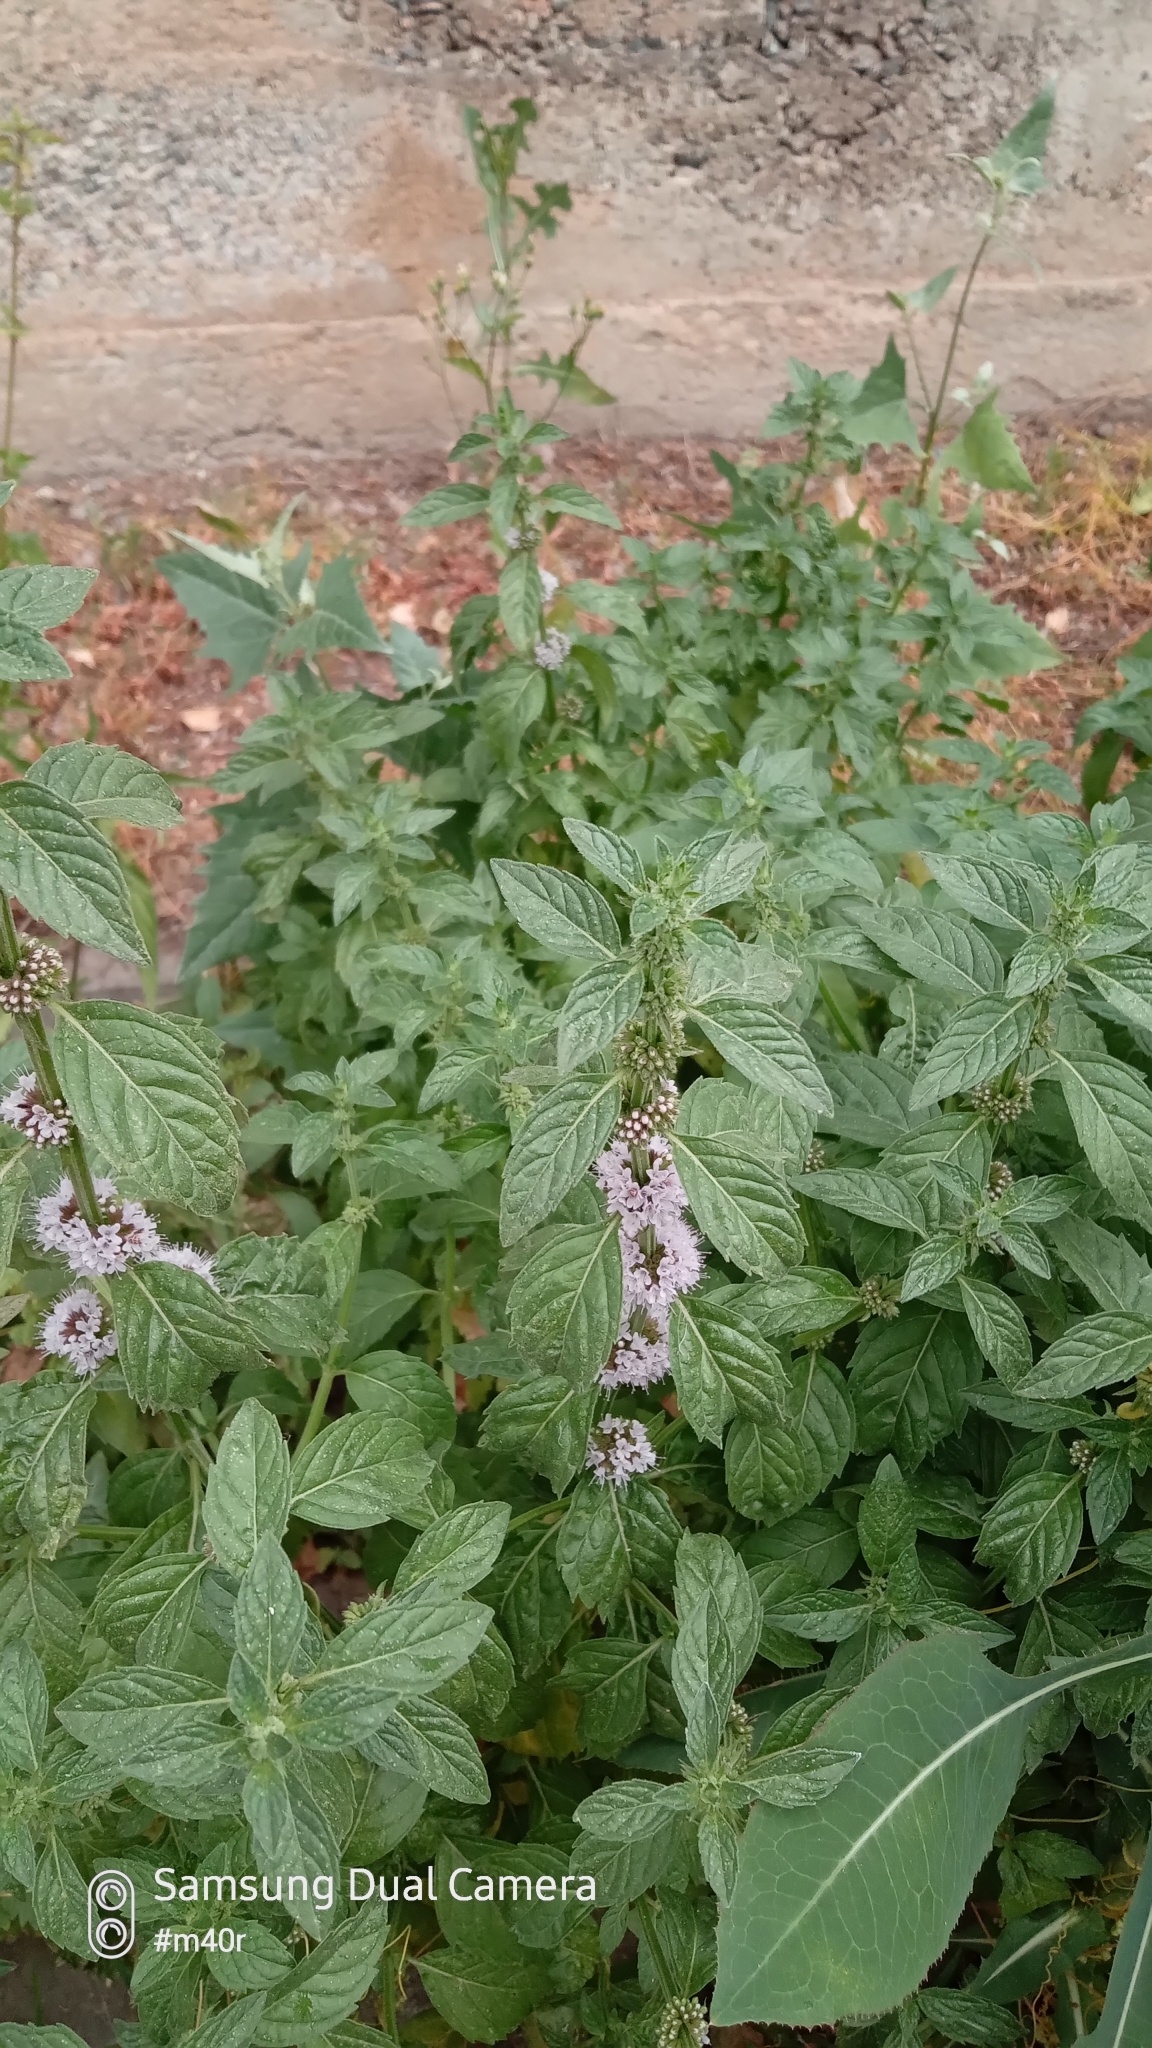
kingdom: Plantae
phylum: Tracheophyta
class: Magnoliopsida
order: Lamiales
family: Lamiaceae
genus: Mentha
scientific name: Mentha arvensis
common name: Corn mint
